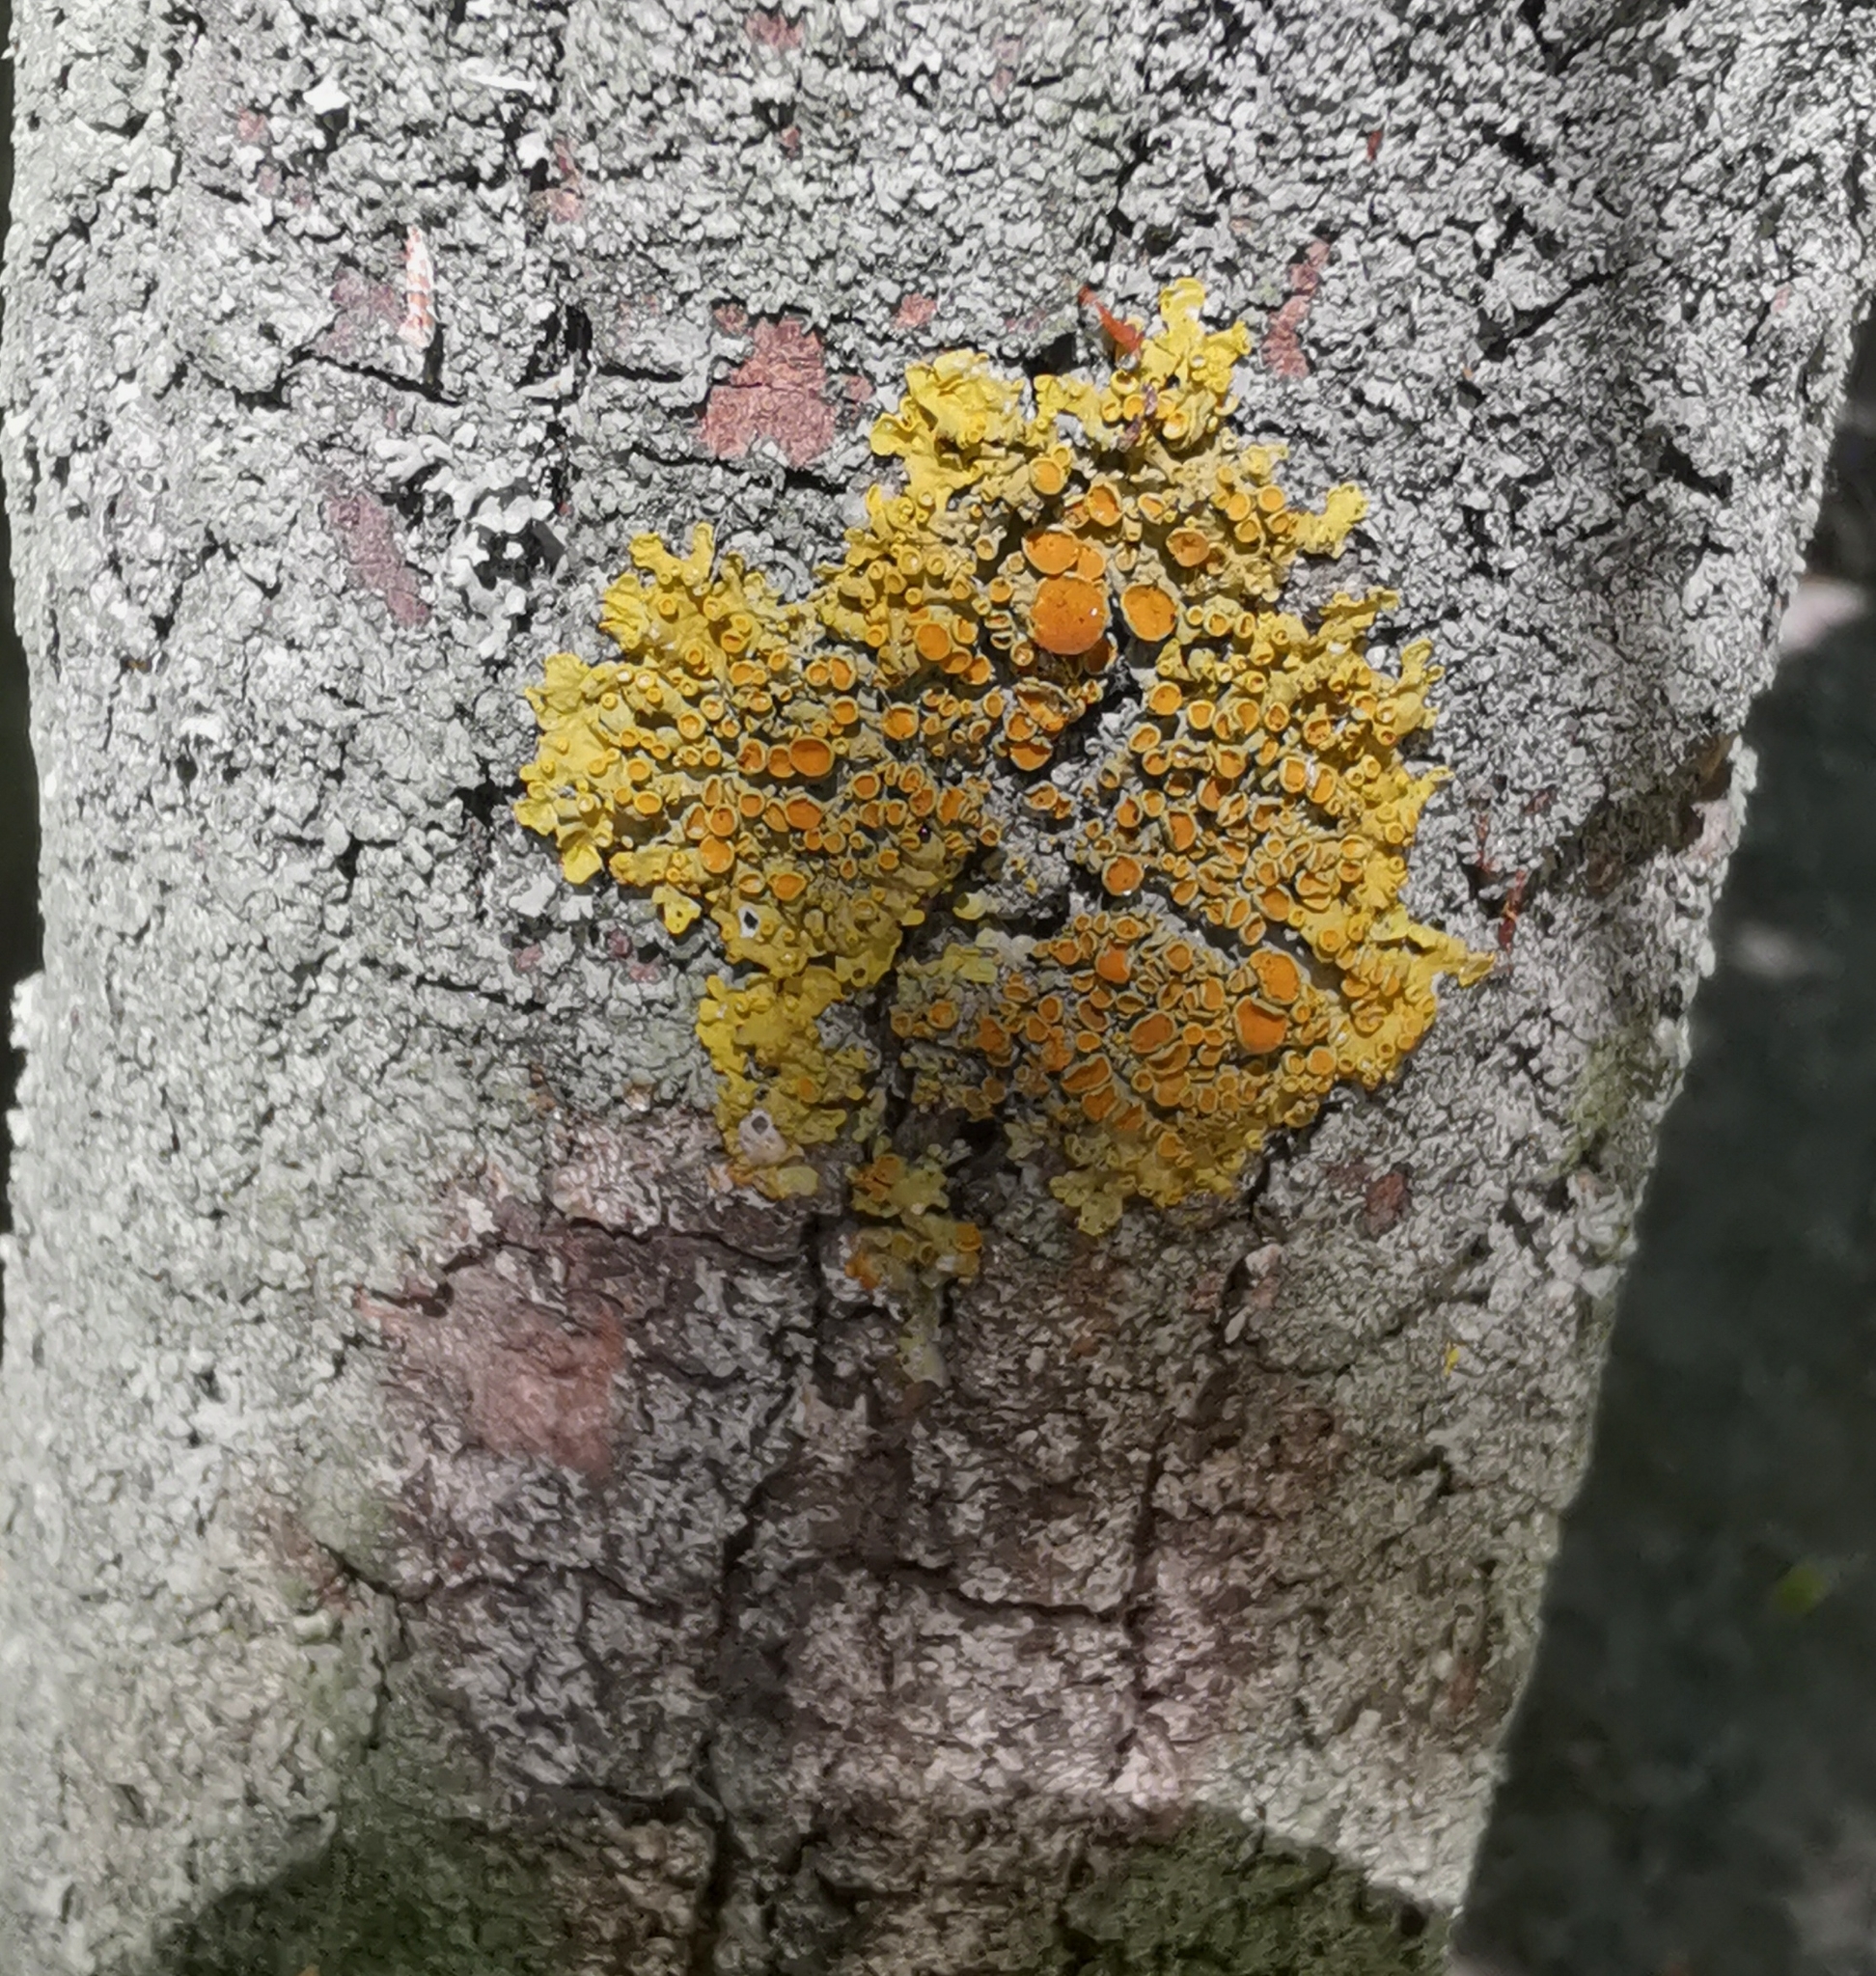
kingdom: Fungi
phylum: Ascomycota
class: Lecanoromycetes
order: Teloschistales
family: Teloschistaceae
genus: Xanthoria
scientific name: Xanthoria parietina
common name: Common orange lichen
